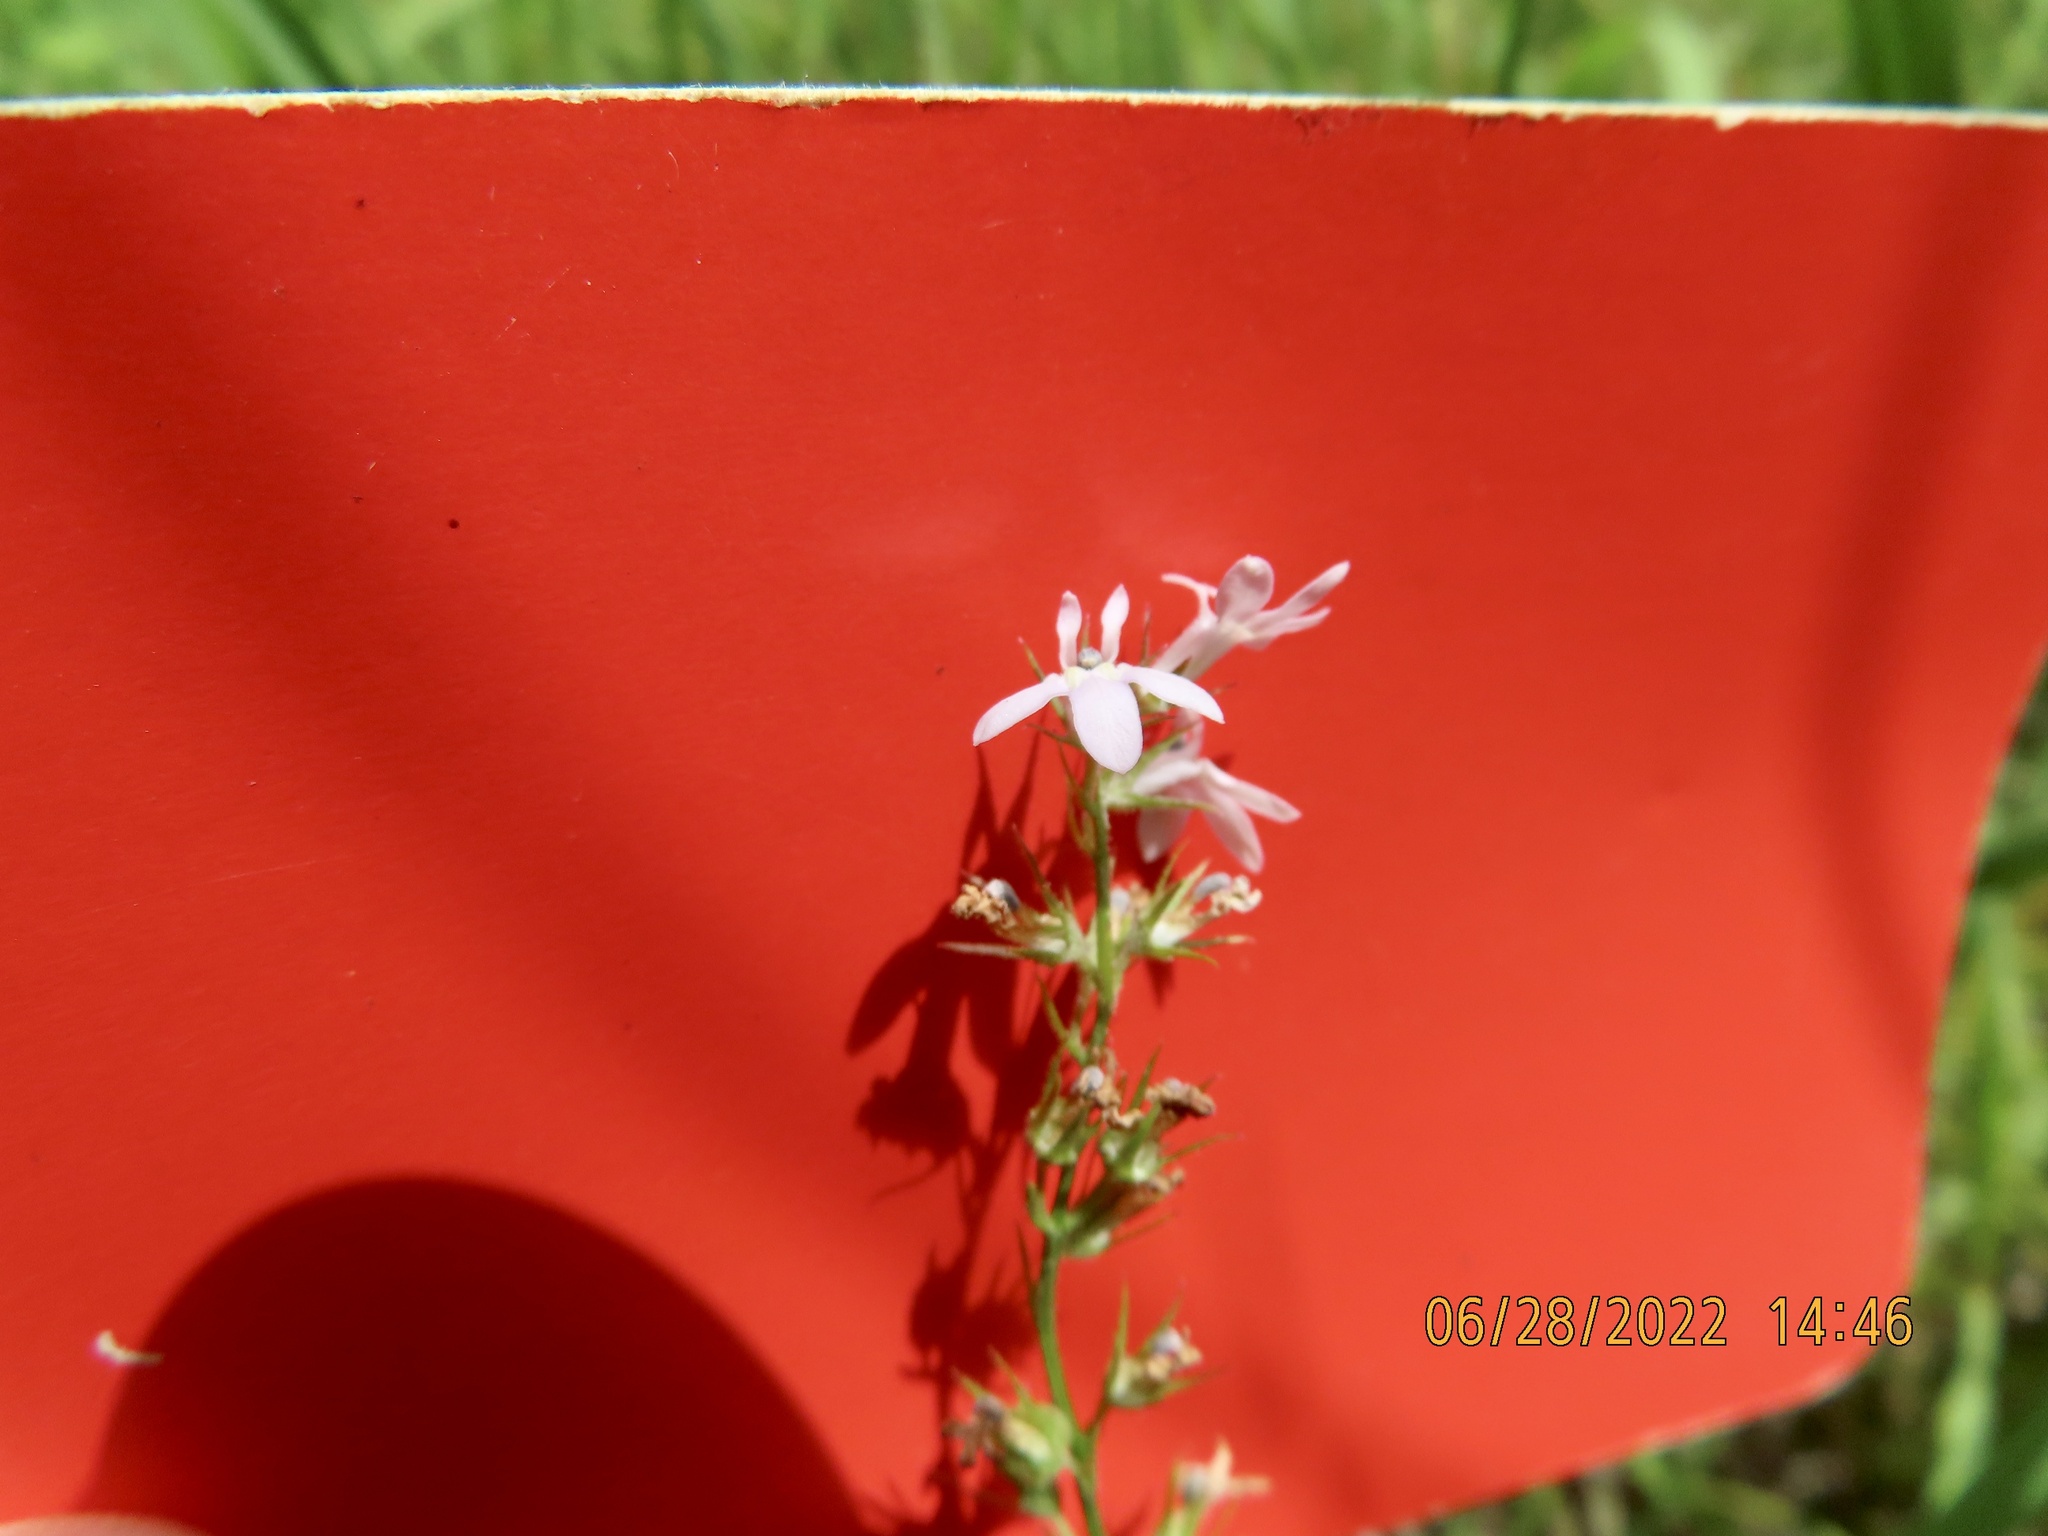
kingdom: Plantae
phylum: Tracheophyta
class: Magnoliopsida
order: Asterales
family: Campanulaceae
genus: Lobelia
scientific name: Lobelia spicata
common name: Pale-spike lobelia
